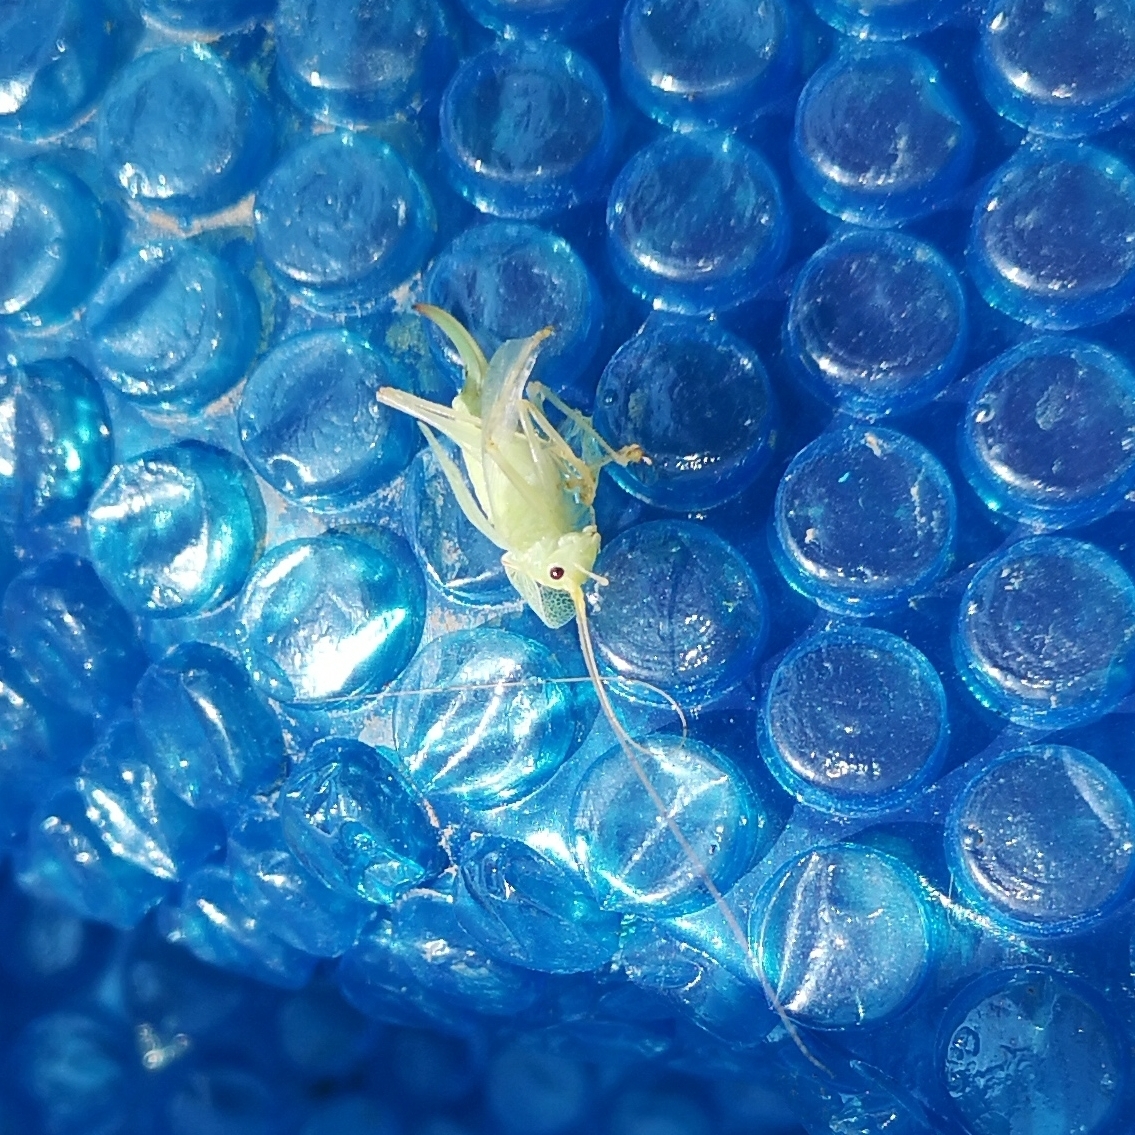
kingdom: Animalia
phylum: Arthropoda
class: Insecta
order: Orthoptera
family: Tettigoniidae
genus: Meconema
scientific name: Meconema thalassinum
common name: Oak bush-cricket
